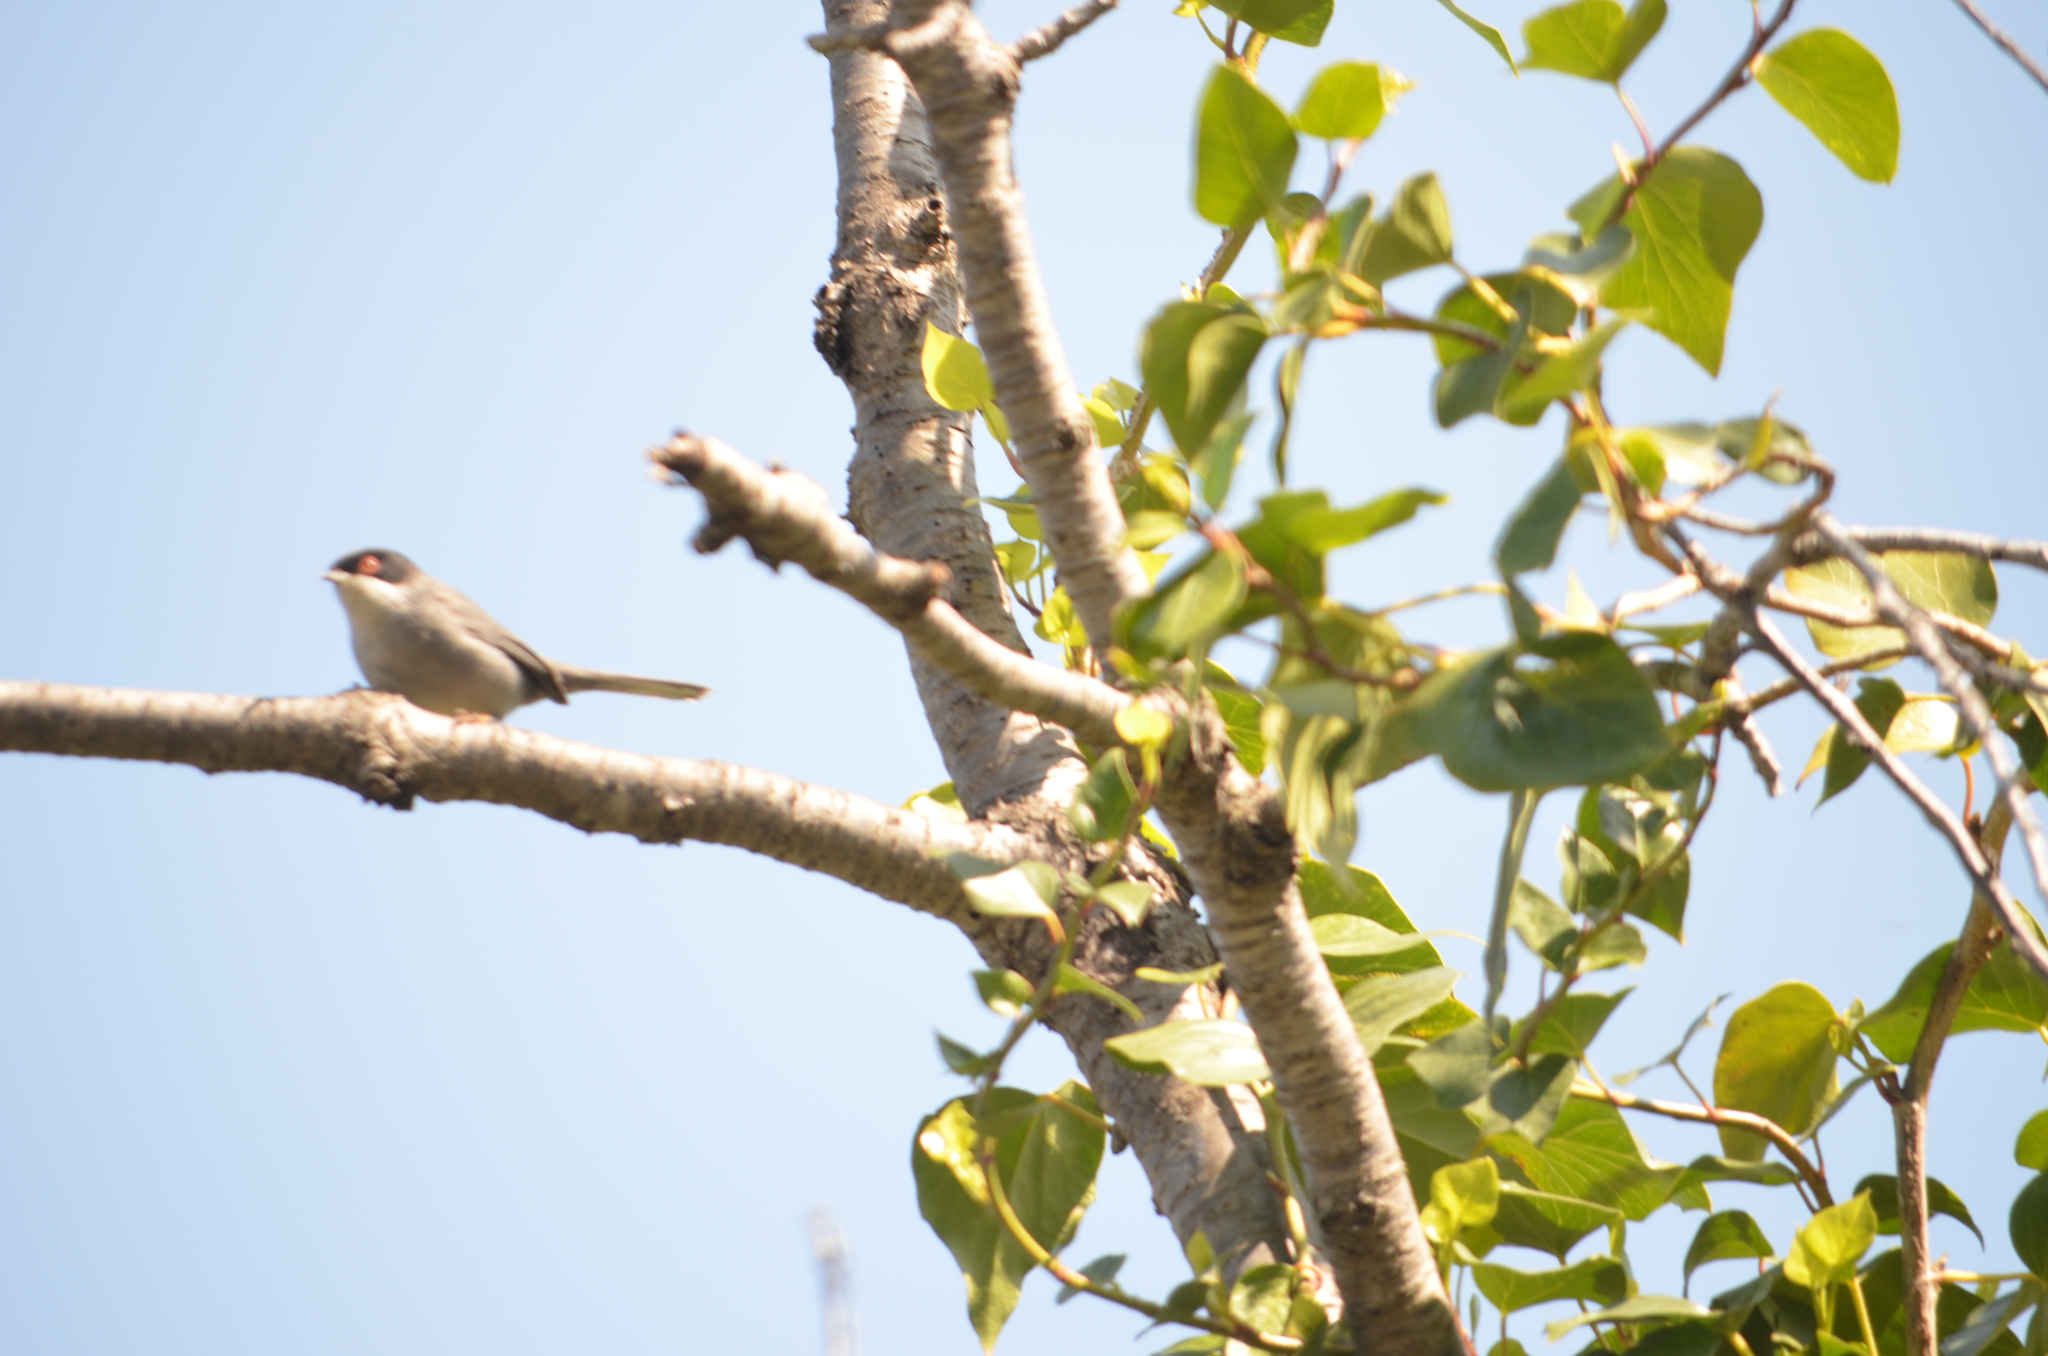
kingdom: Animalia
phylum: Chordata
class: Aves
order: Passeriformes
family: Sylviidae
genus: Curruca
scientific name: Curruca melanocephala
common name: Sardinian warbler
